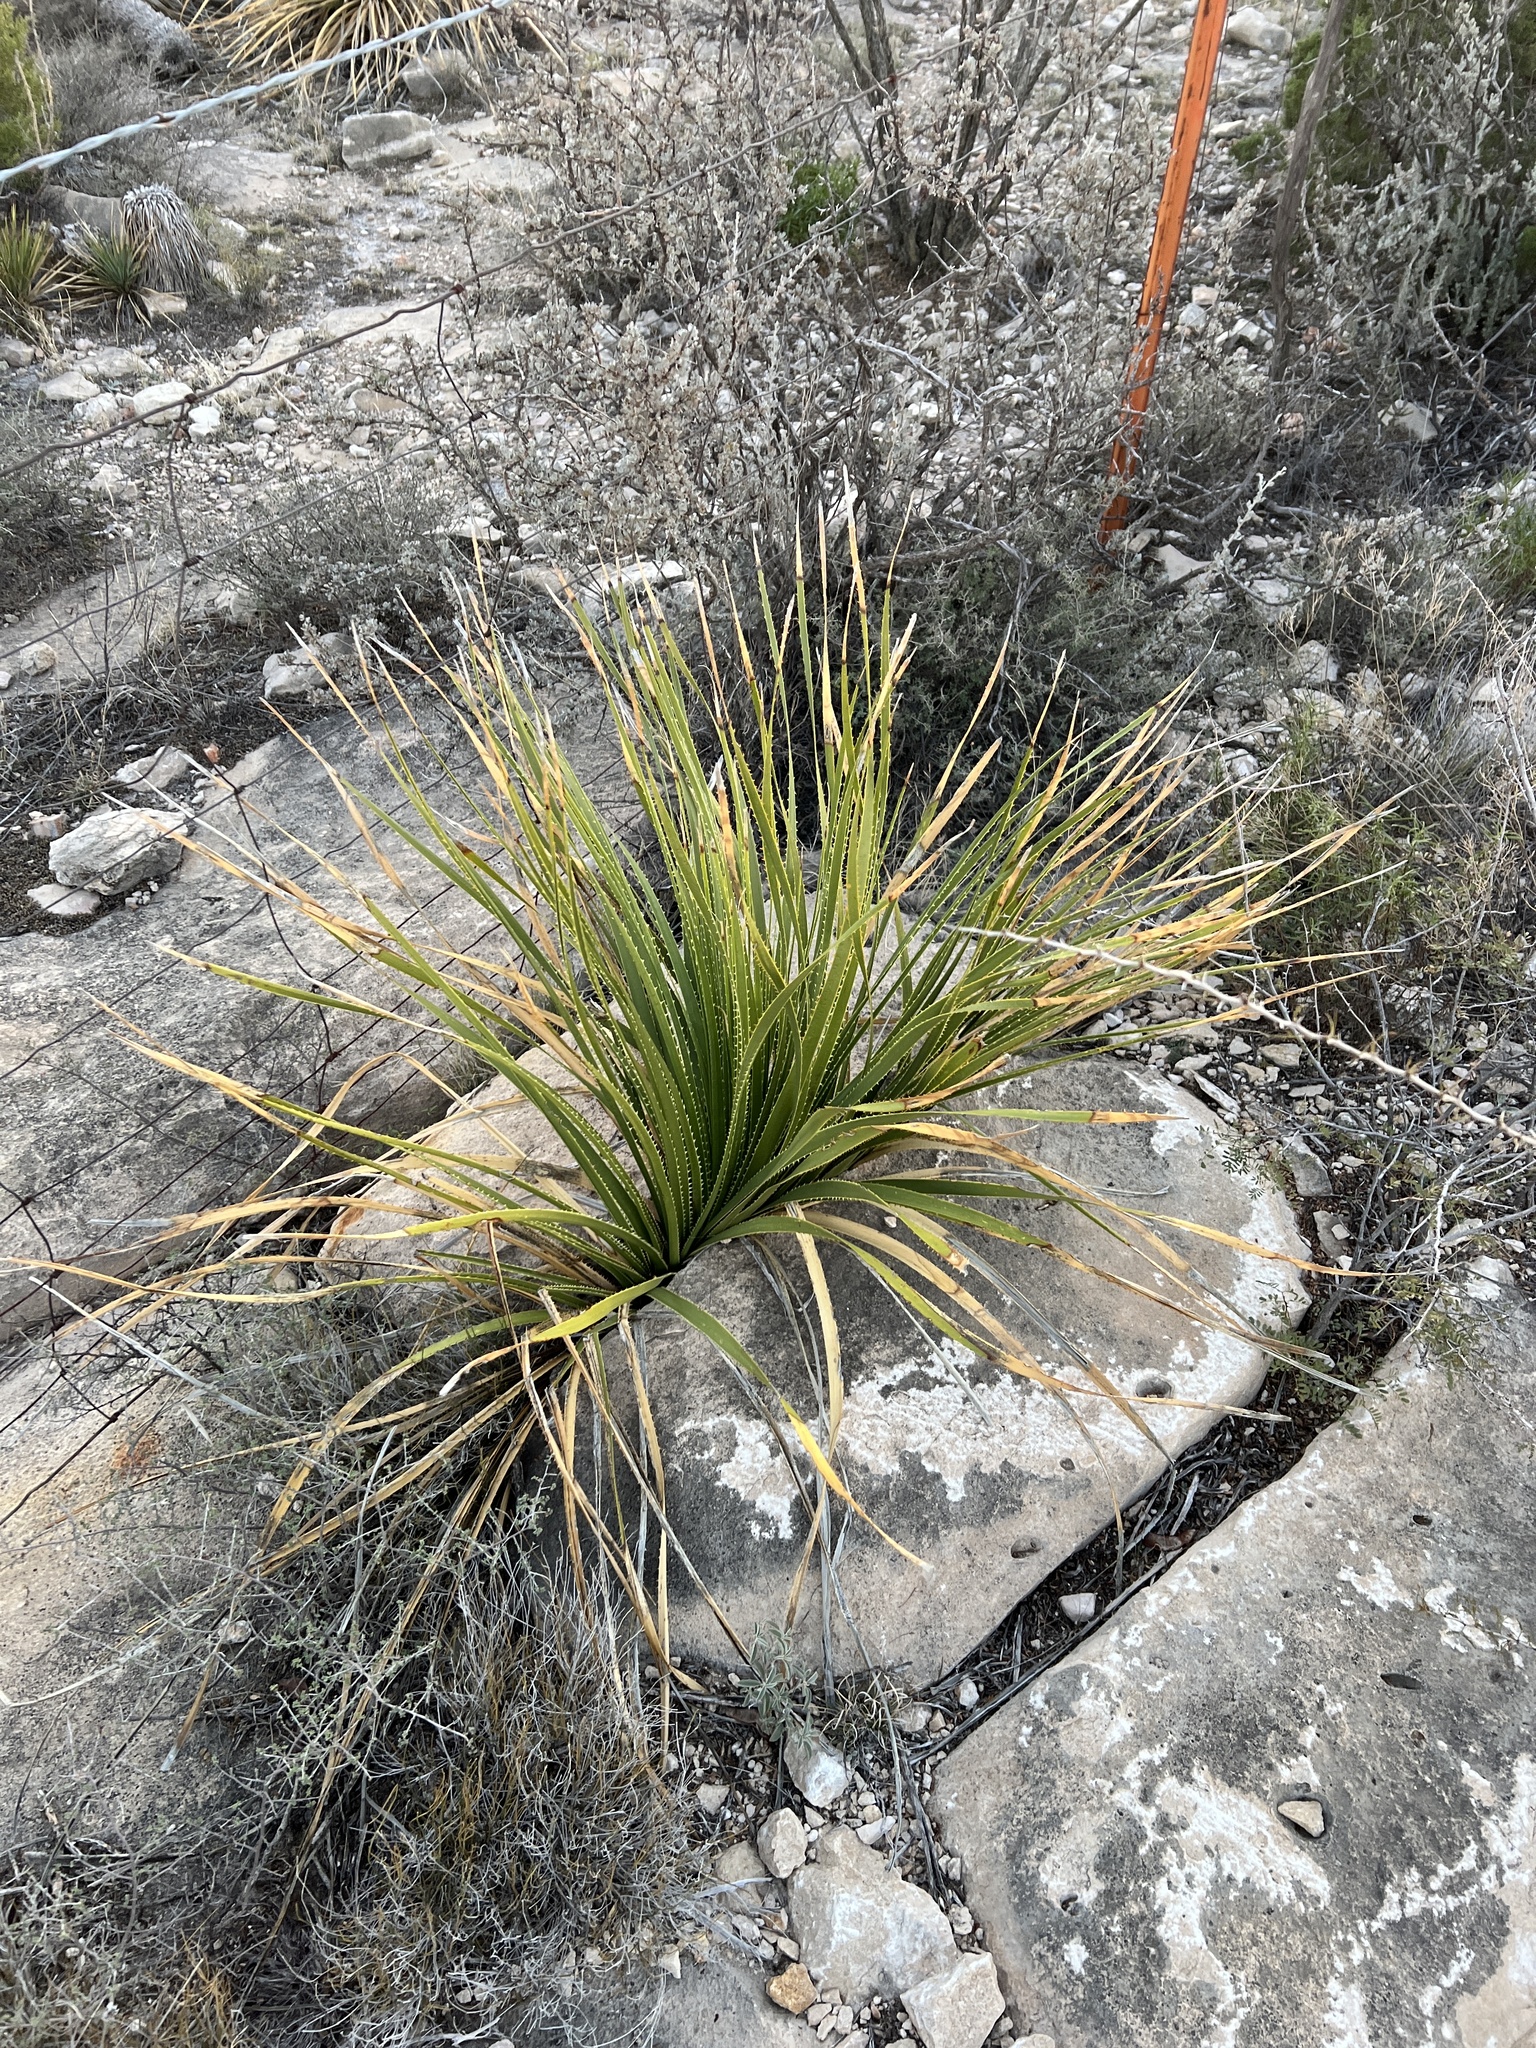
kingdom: Plantae
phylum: Tracheophyta
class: Liliopsida
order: Asparagales
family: Asparagaceae
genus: Dasylirion
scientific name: Dasylirion texanum
